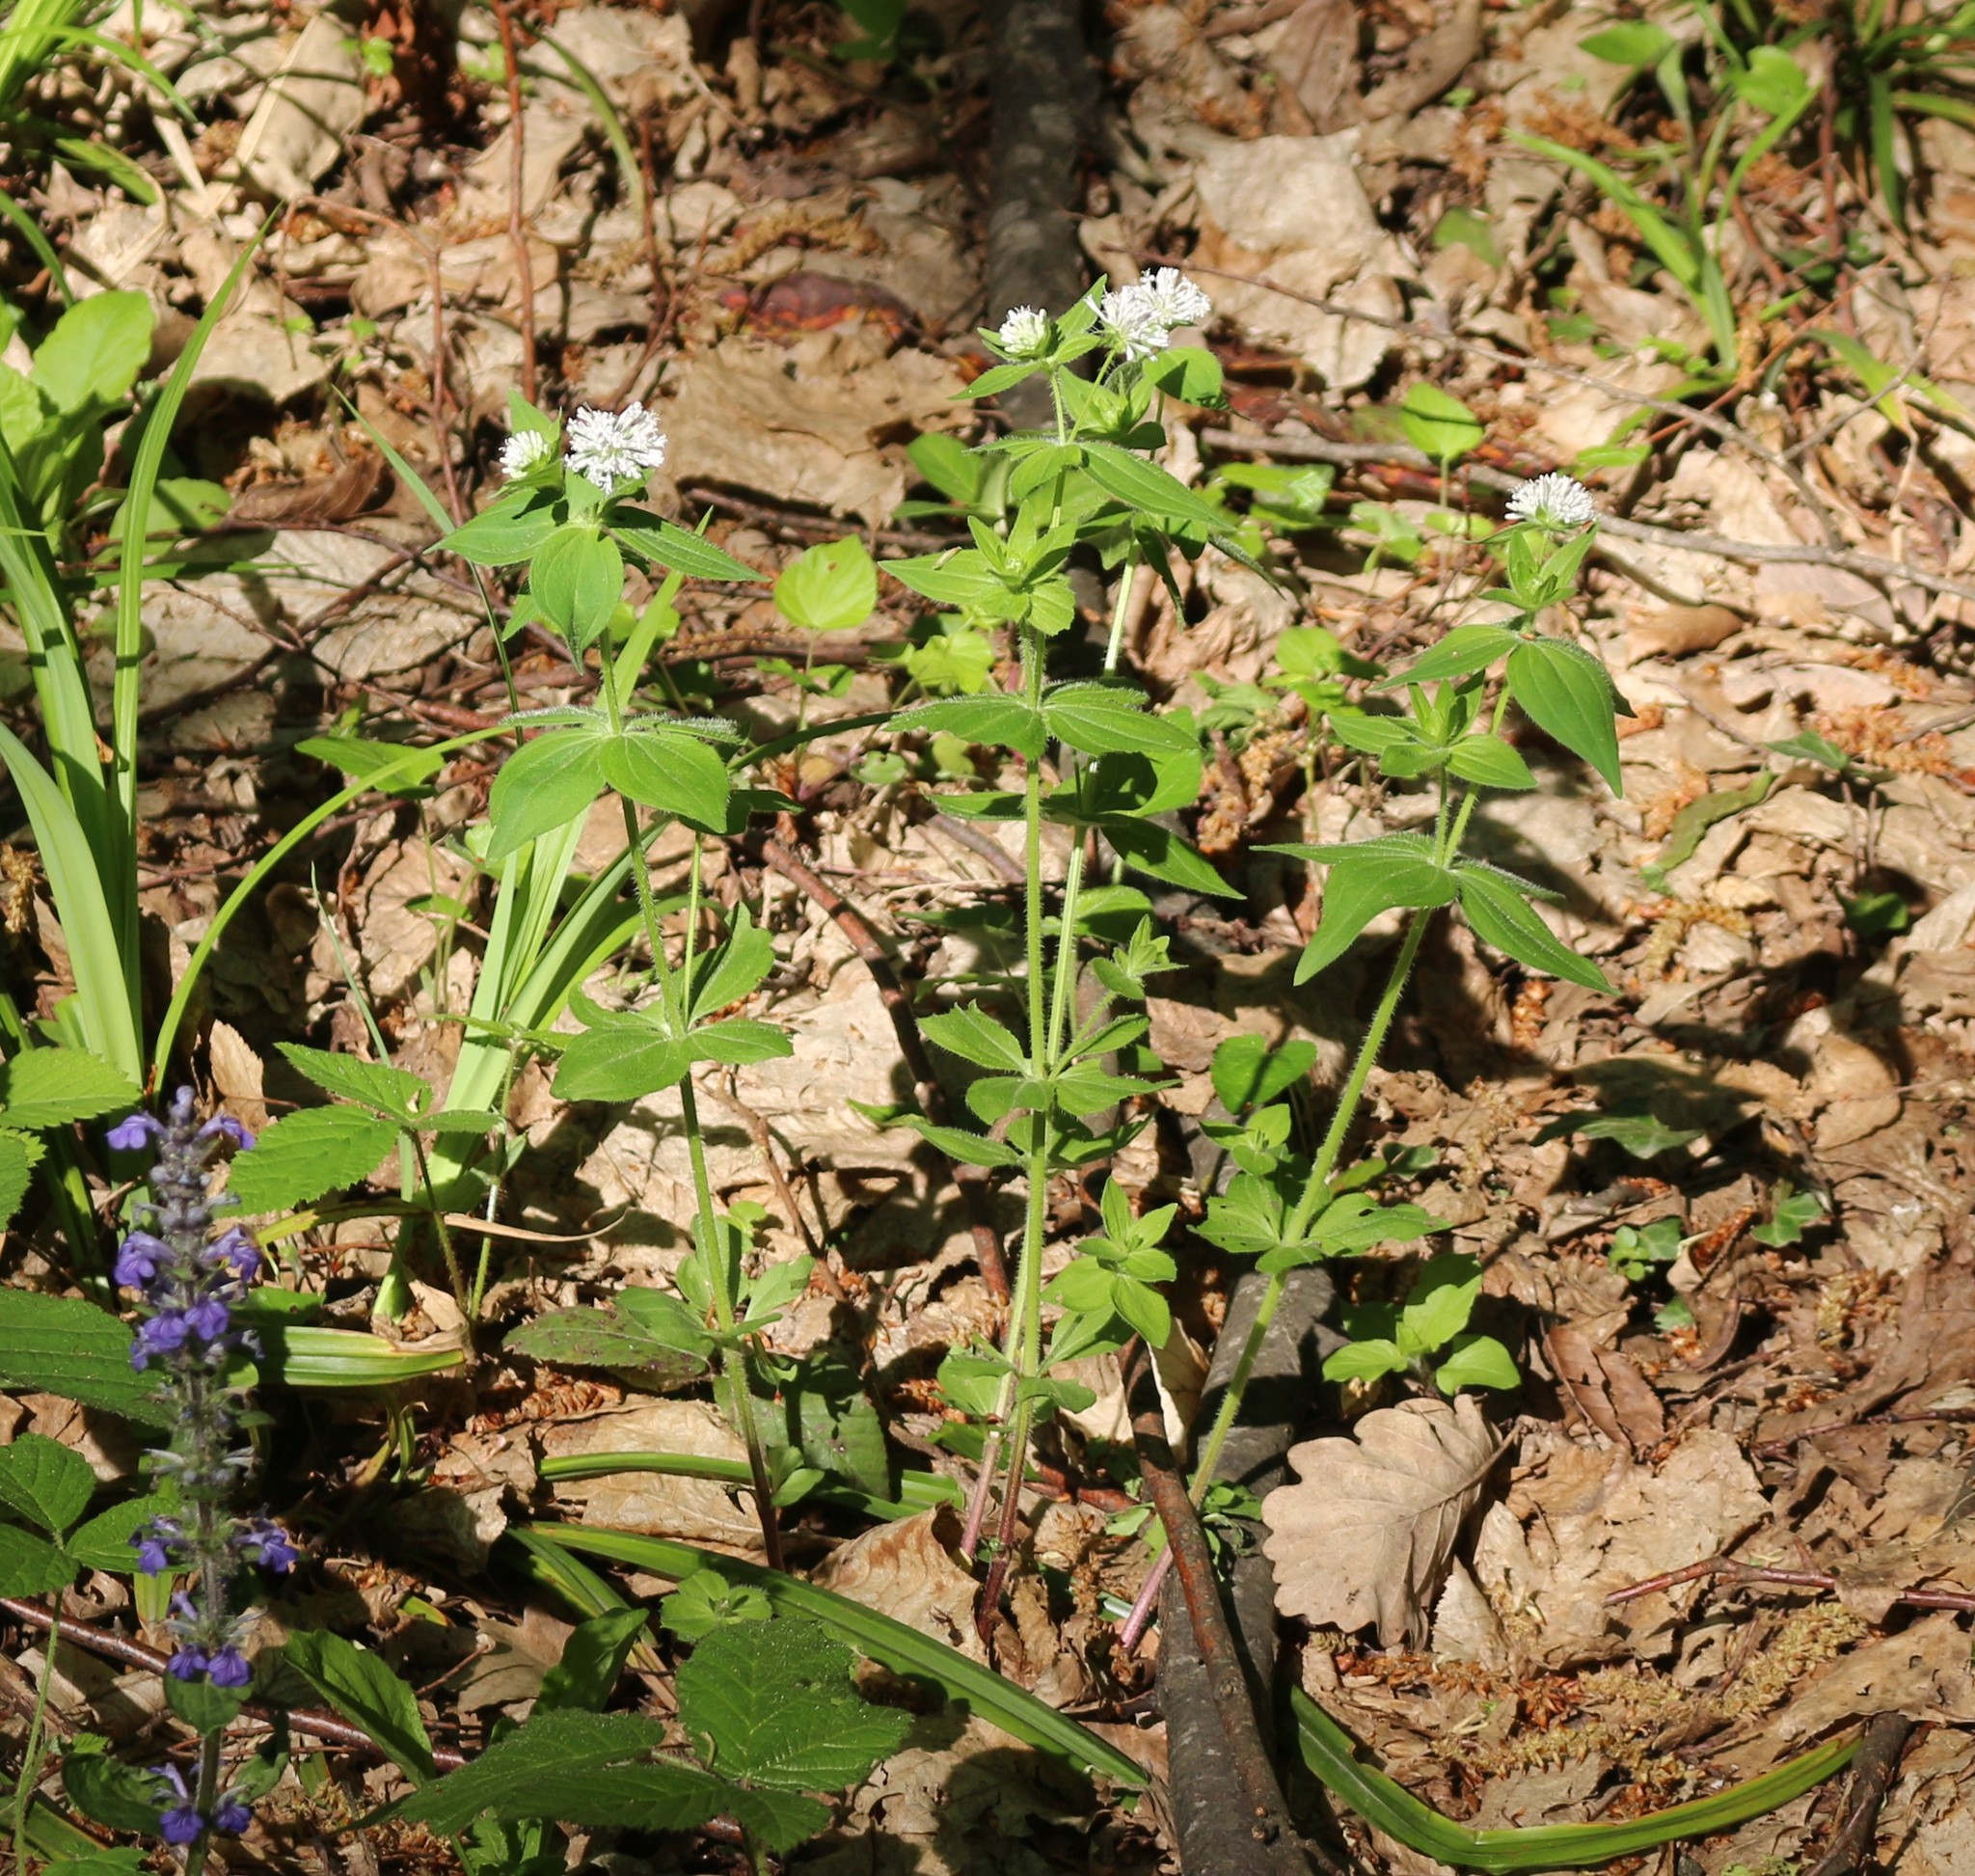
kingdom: Plantae
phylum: Tracheophyta
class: Magnoliopsida
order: Gentianales
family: Rubiaceae
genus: Asperula
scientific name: Asperula taurina
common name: Pink woodruff
